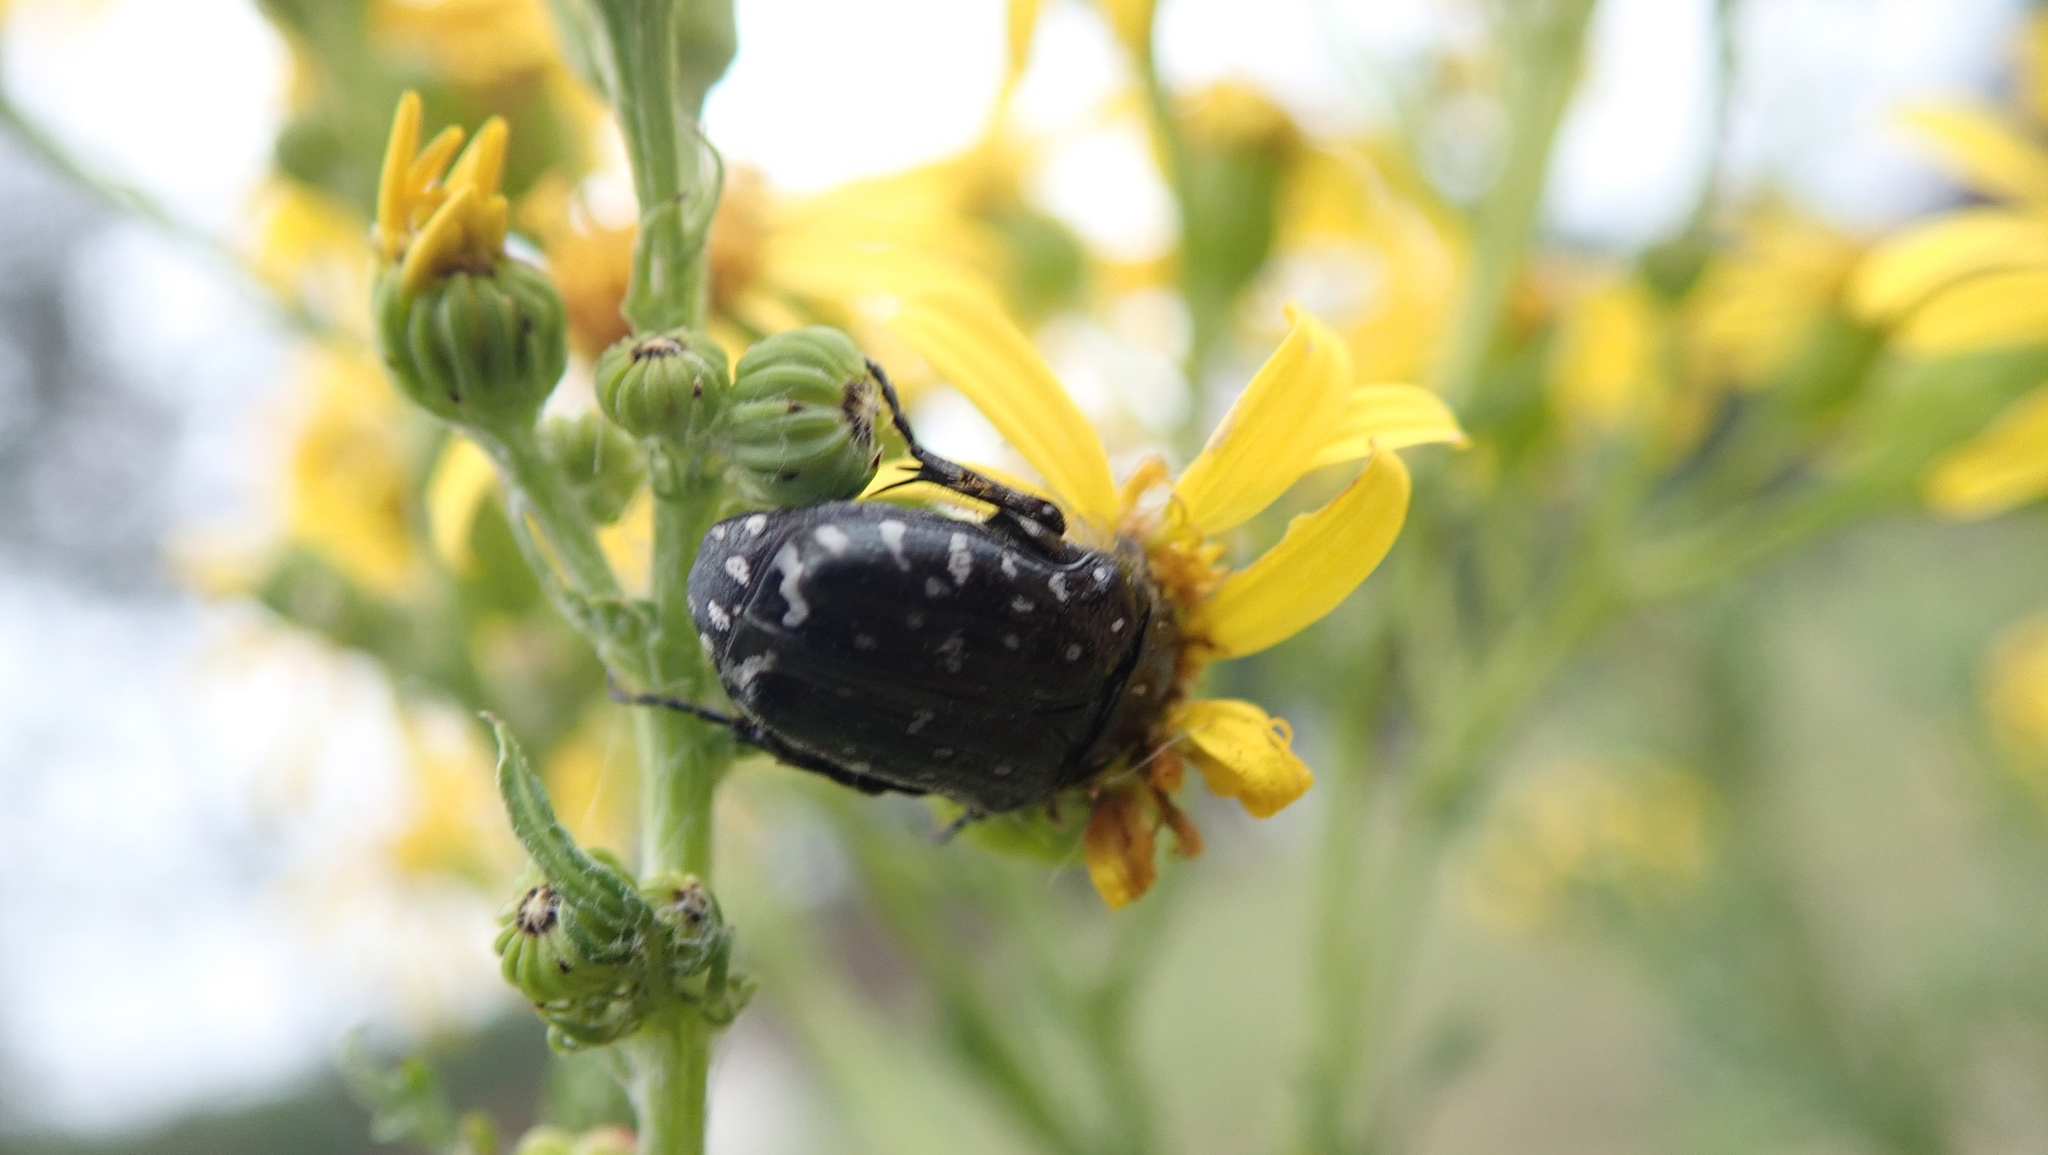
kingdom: Animalia
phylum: Arthropoda
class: Insecta
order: Coleoptera
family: Scarabaeidae
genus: Oxythyrea
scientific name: Oxythyrea funesta
